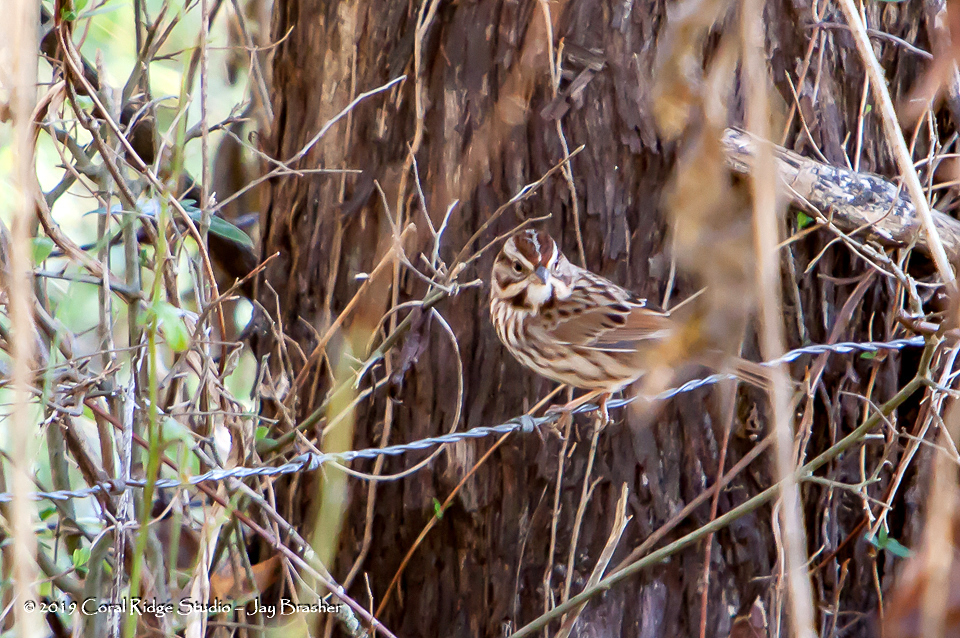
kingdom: Animalia
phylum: Chordata
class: Aves
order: Passeriformes
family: Passerellidae
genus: Melospiza
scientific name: Melospiza melodia
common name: Song sparrow
